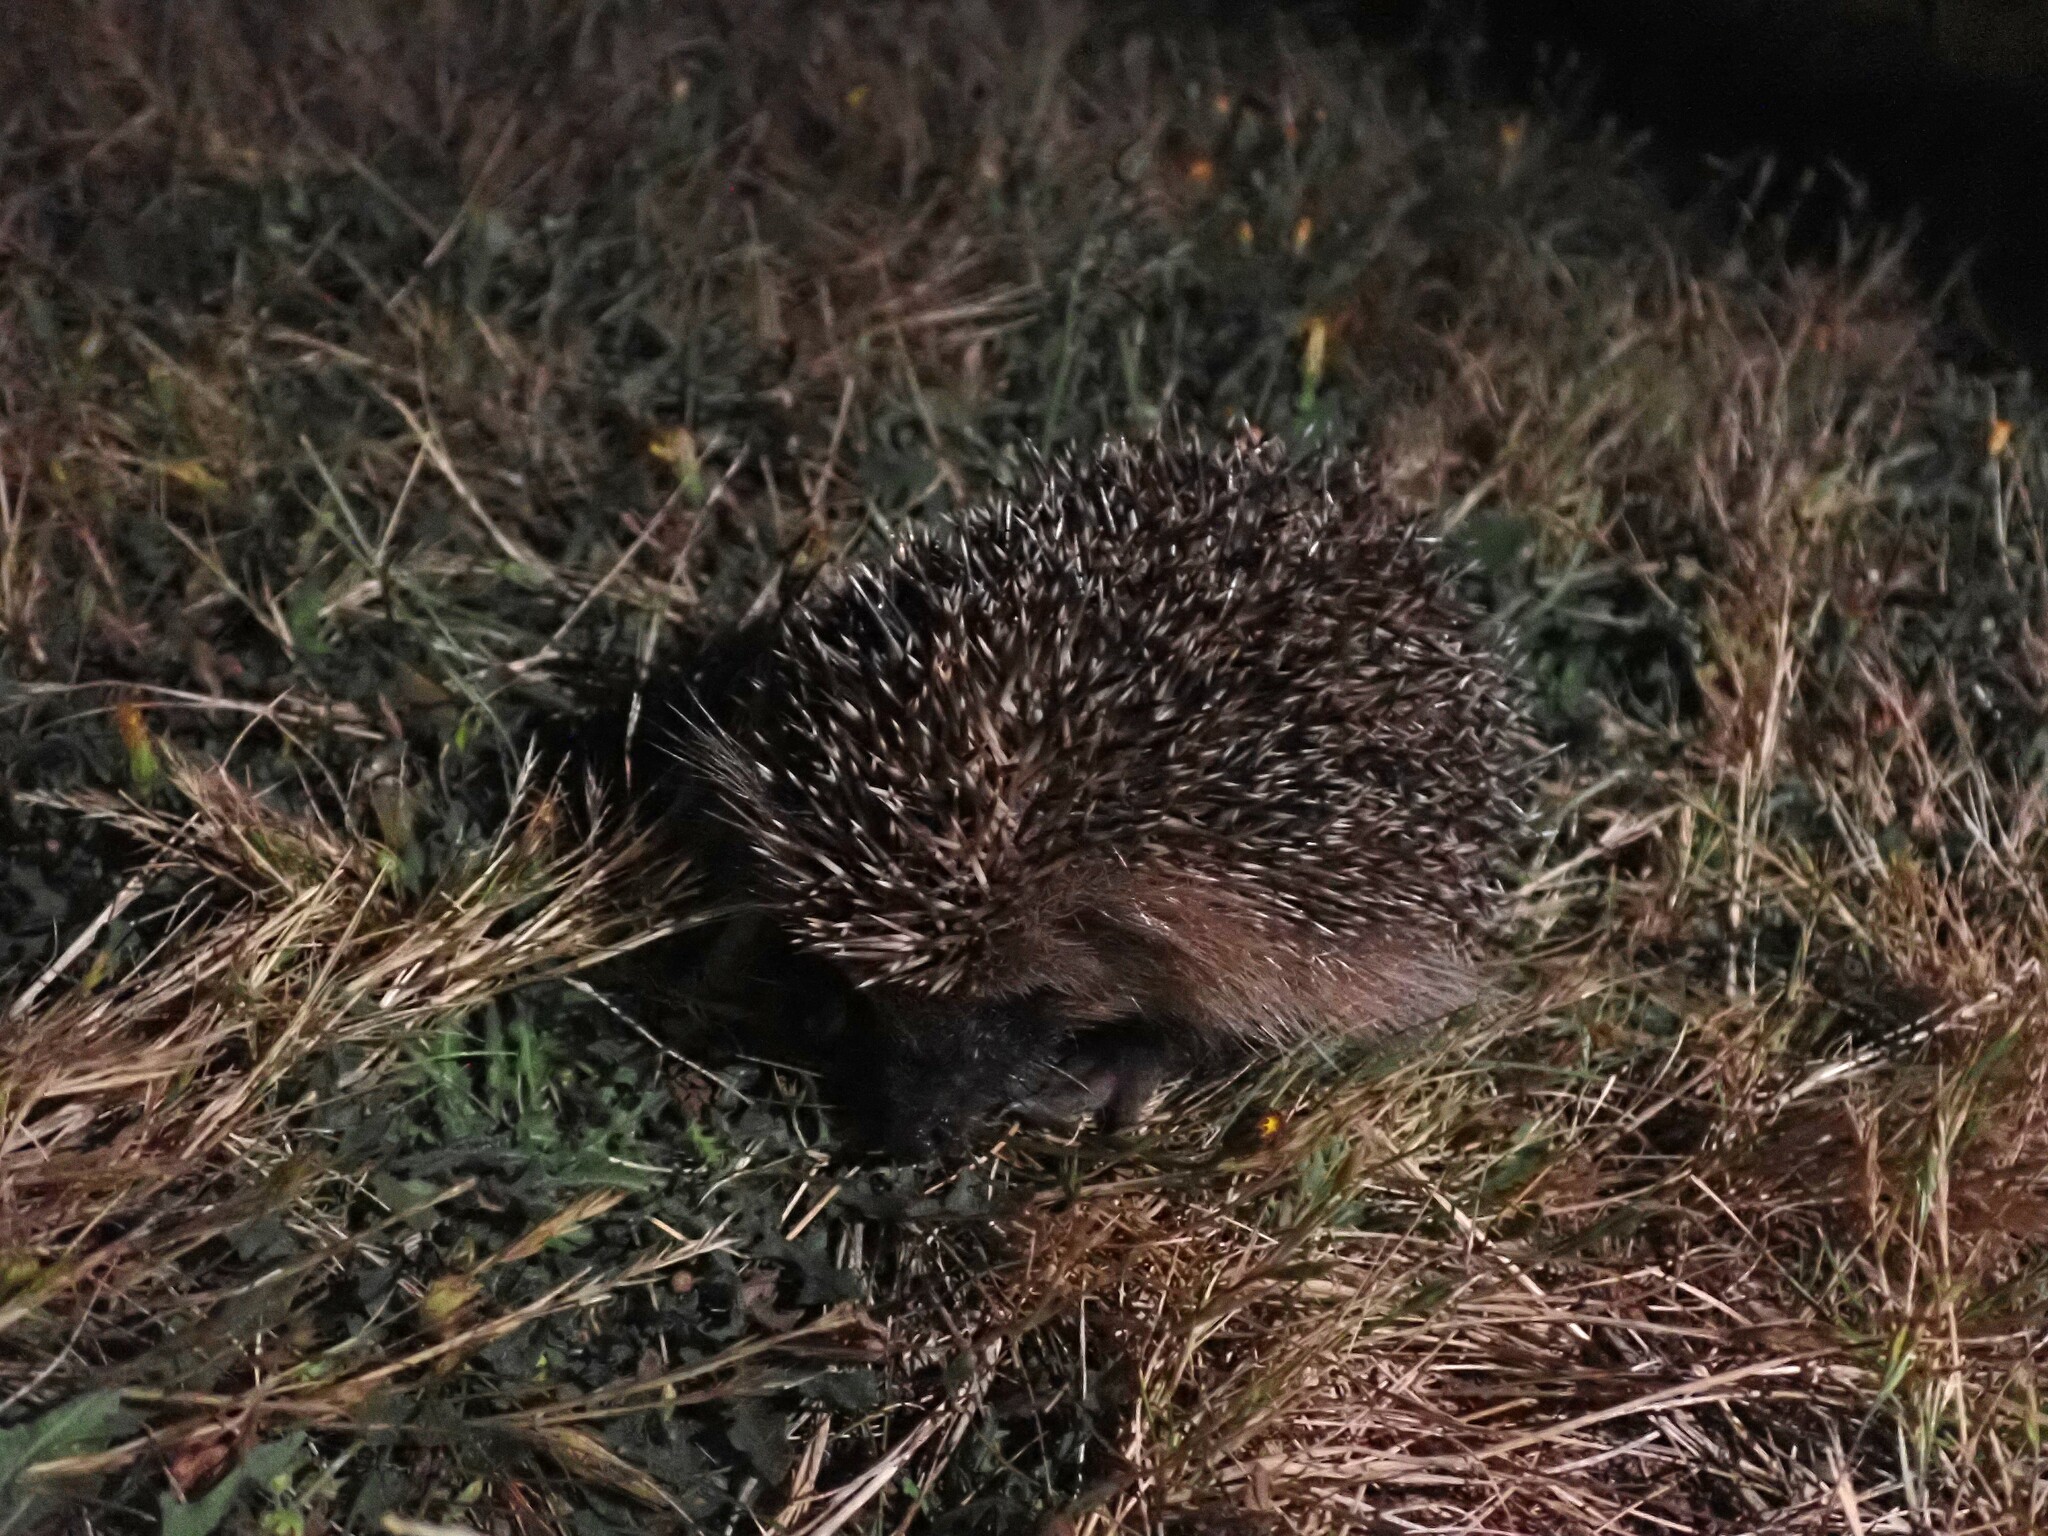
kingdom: Animalia
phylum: Chordata
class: Mammalia
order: Erinaceomorpha
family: Erinaceidae
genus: Erinaceus
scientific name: Erinaceus europaeus
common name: West european hedgehog
